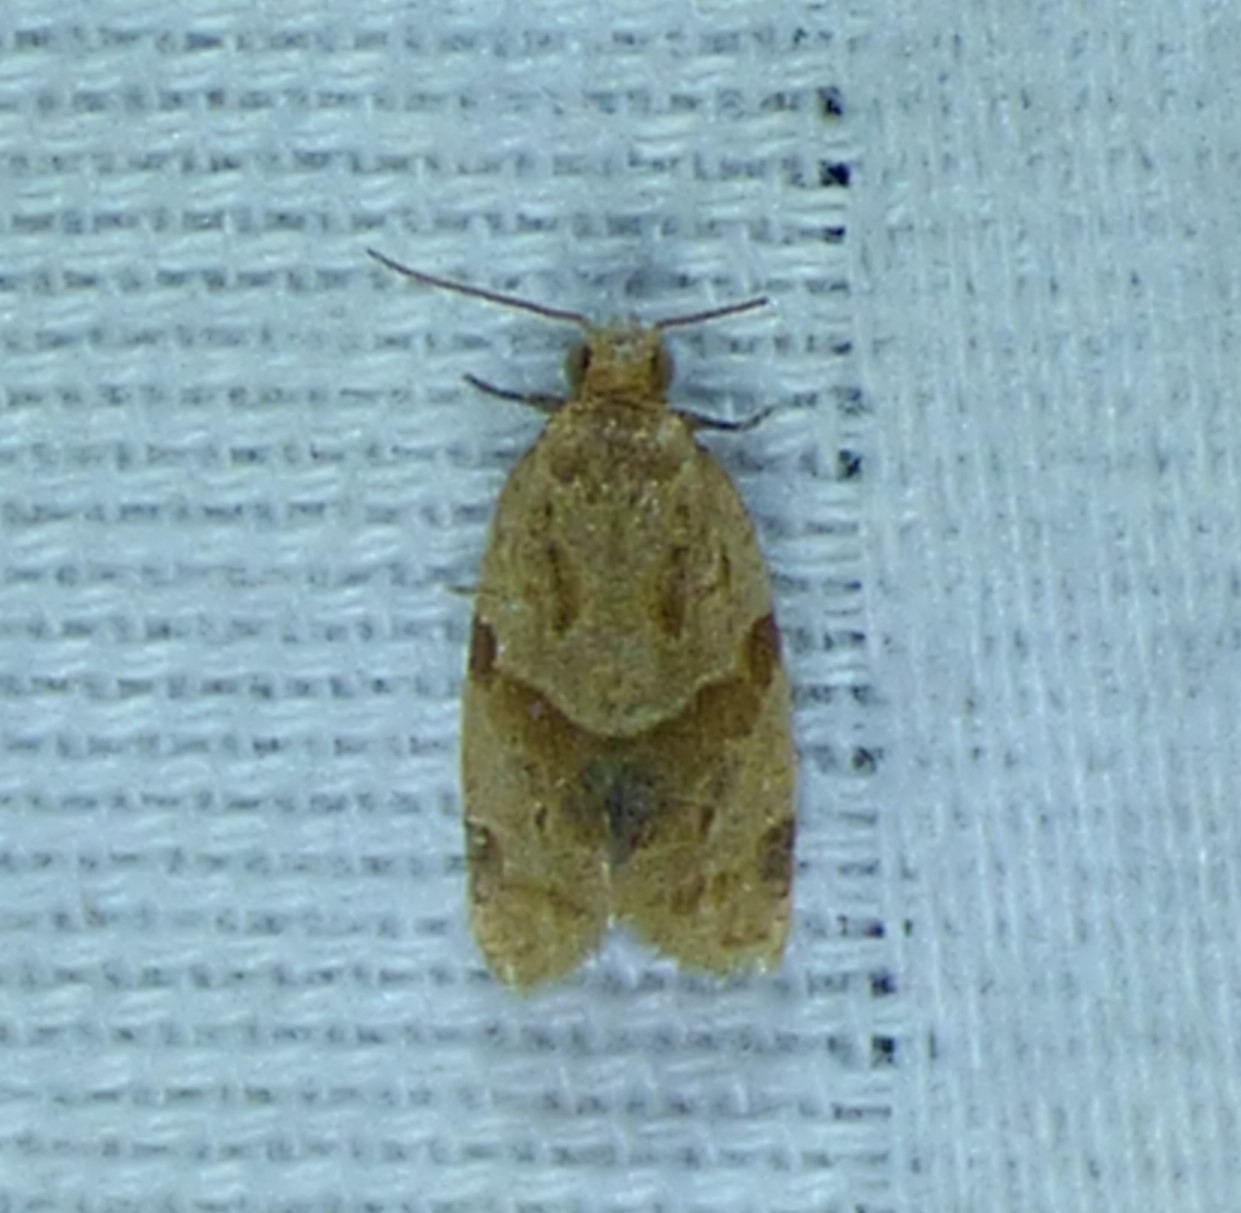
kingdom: Animalia
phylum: Arthropoda
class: Insecta
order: Lepidoptera
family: Tortricidae
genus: Clepsis
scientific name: Clepsis peritana
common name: Garden tortrix
